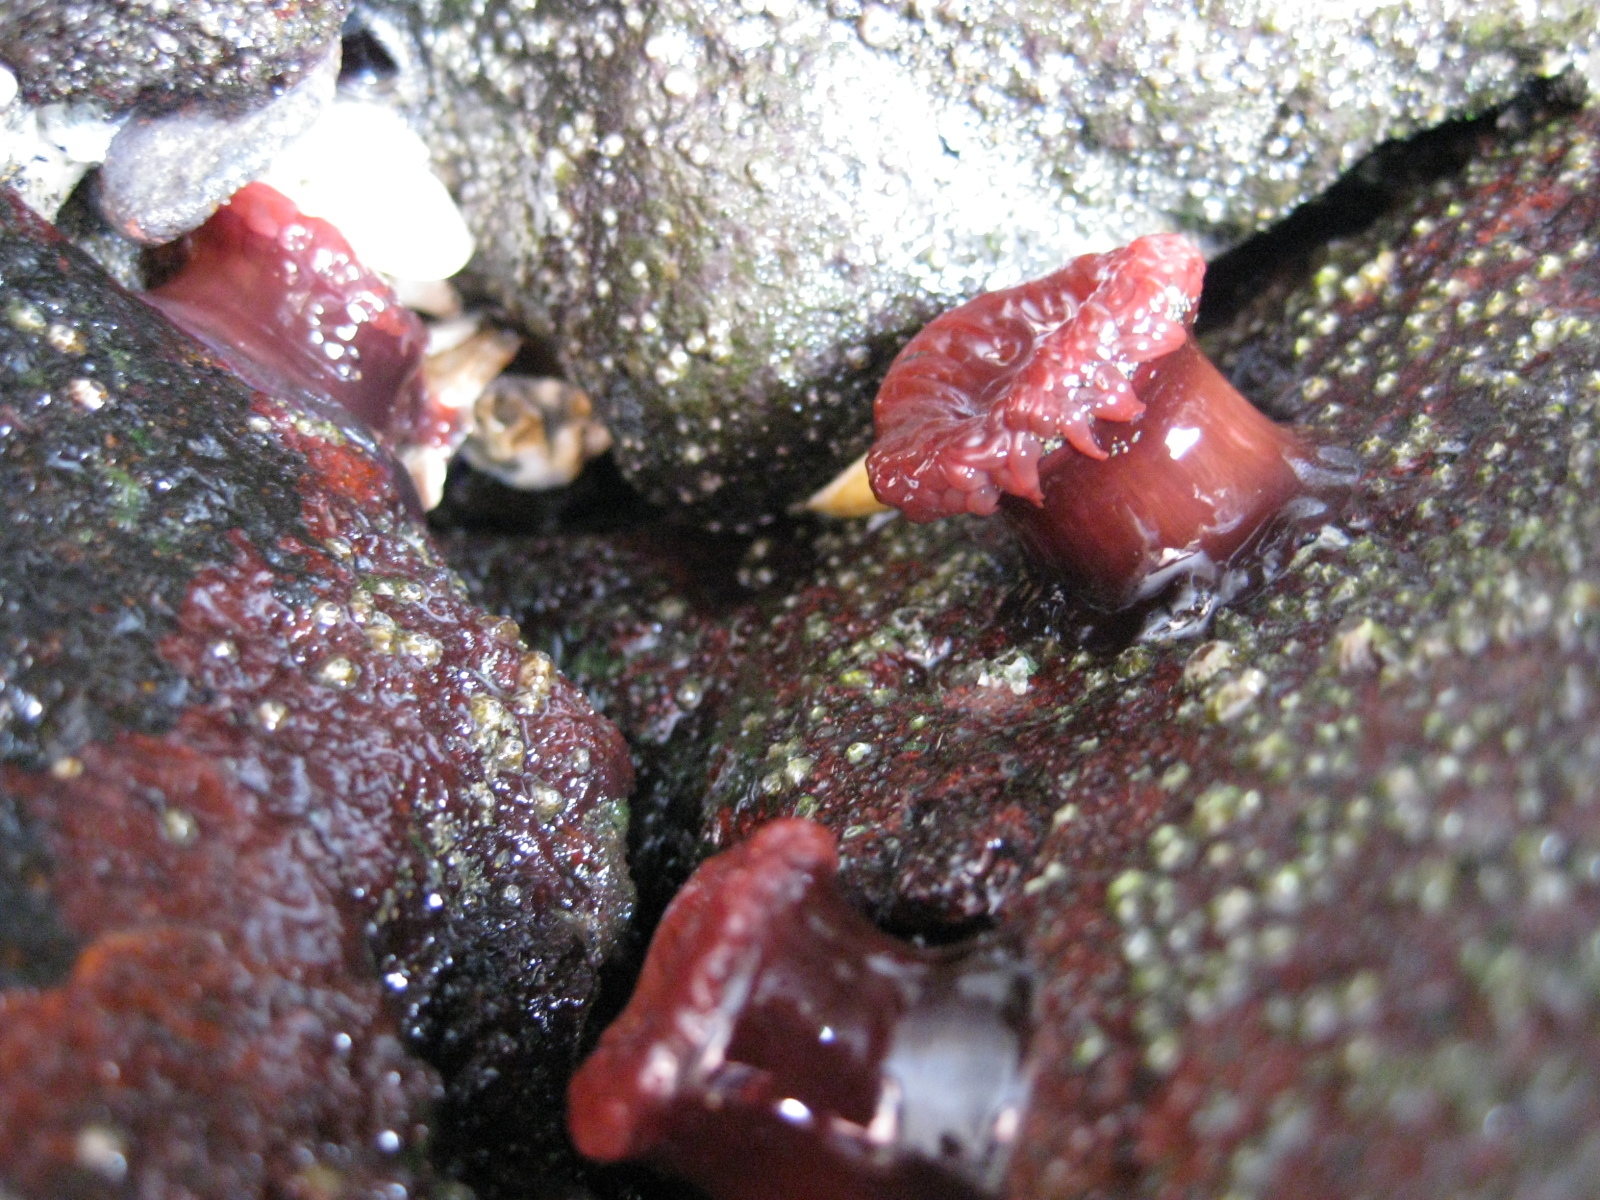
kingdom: Animalia
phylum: Cnidaria
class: Anthozoa
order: Actiniaria
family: Actiniidae
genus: Actinia
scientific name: Actinia tenebrosa
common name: Waratah anemone
